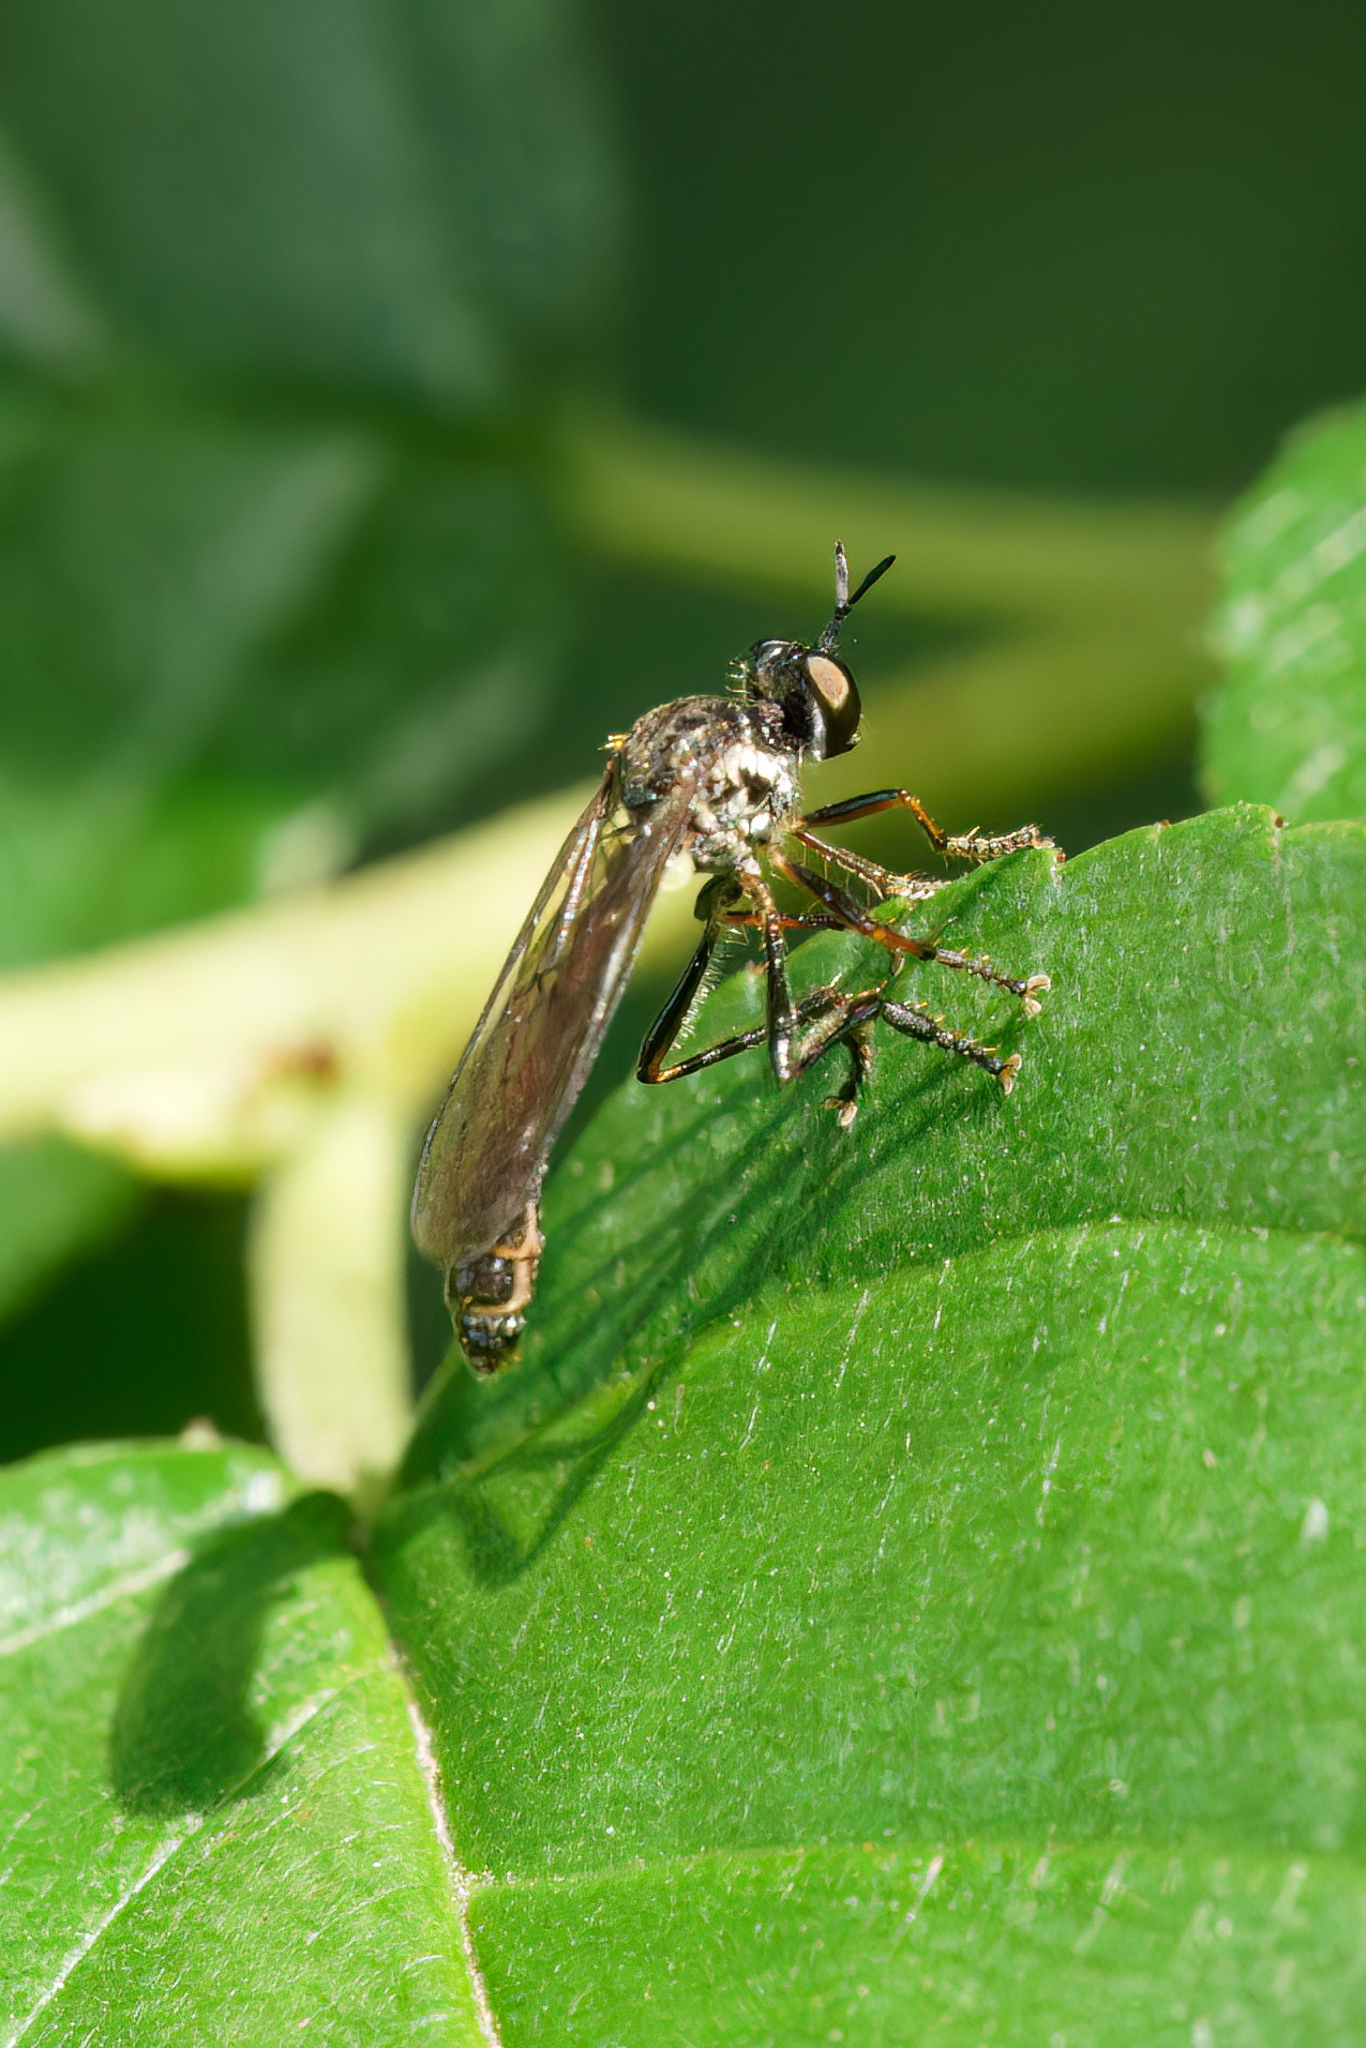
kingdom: Animalia
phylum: Arthropoda
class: Insecta
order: Diptera
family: Asilidae
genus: Dioctria
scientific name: Dioctria hyalipennis
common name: Stripe-legged robberfly
